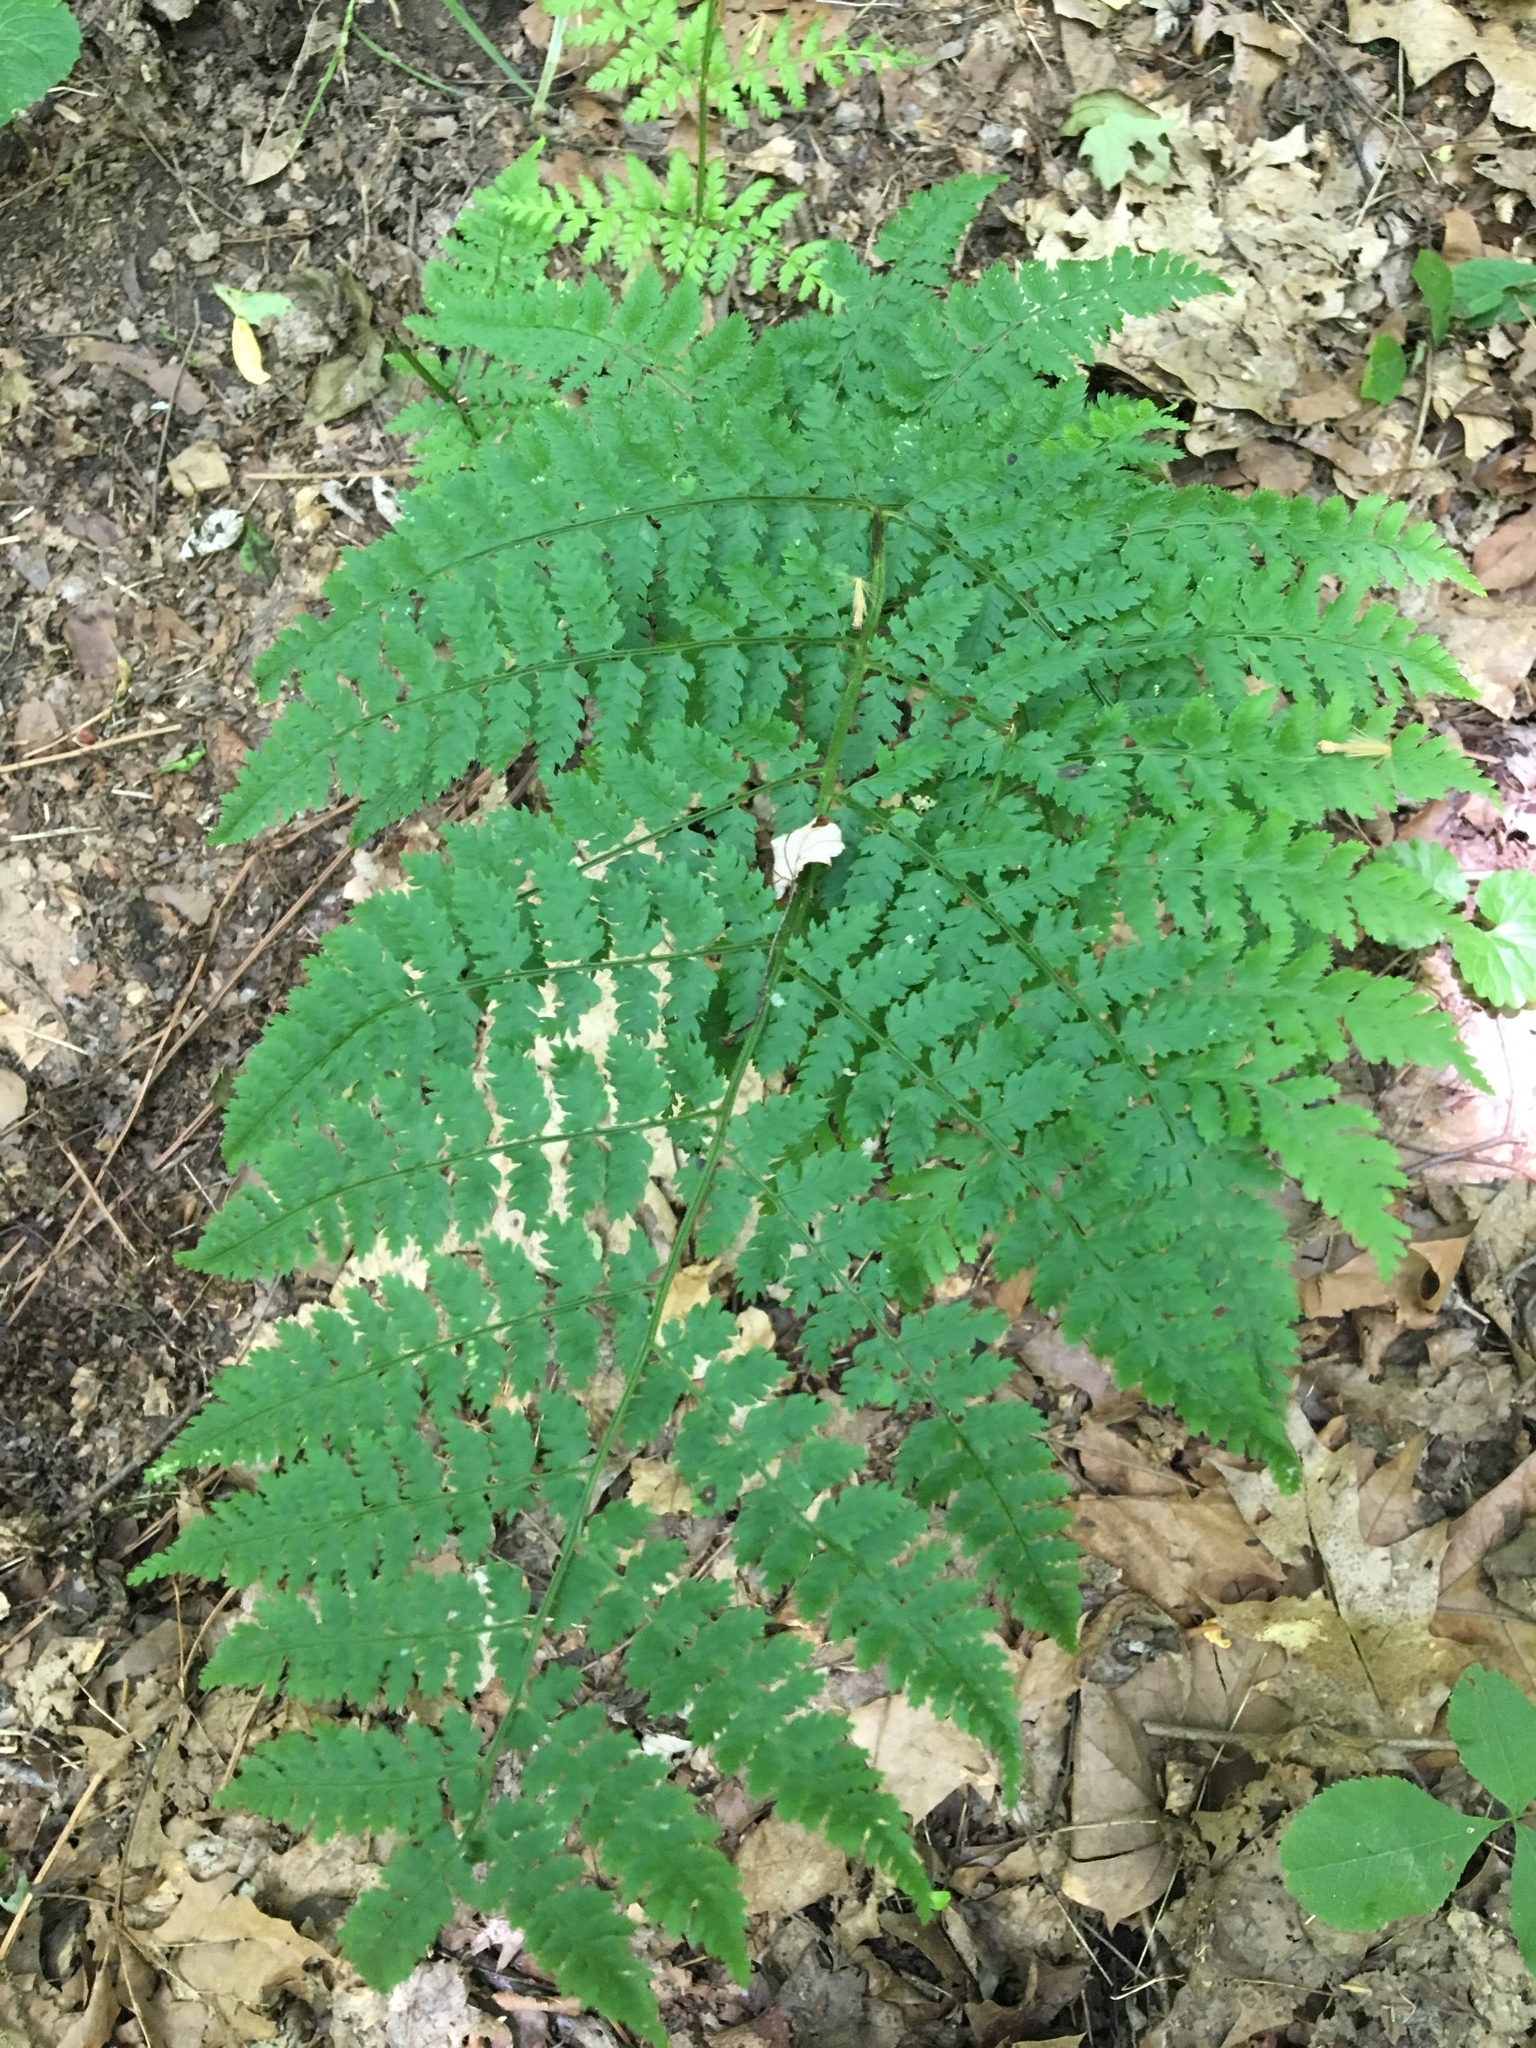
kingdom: Plantae
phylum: Tracheophyta
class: Polypodiopsida
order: Polypodiales
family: Dryopteridaceae
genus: Dryopteris
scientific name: Dryopteris intermedia
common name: Evergreen wood fern
